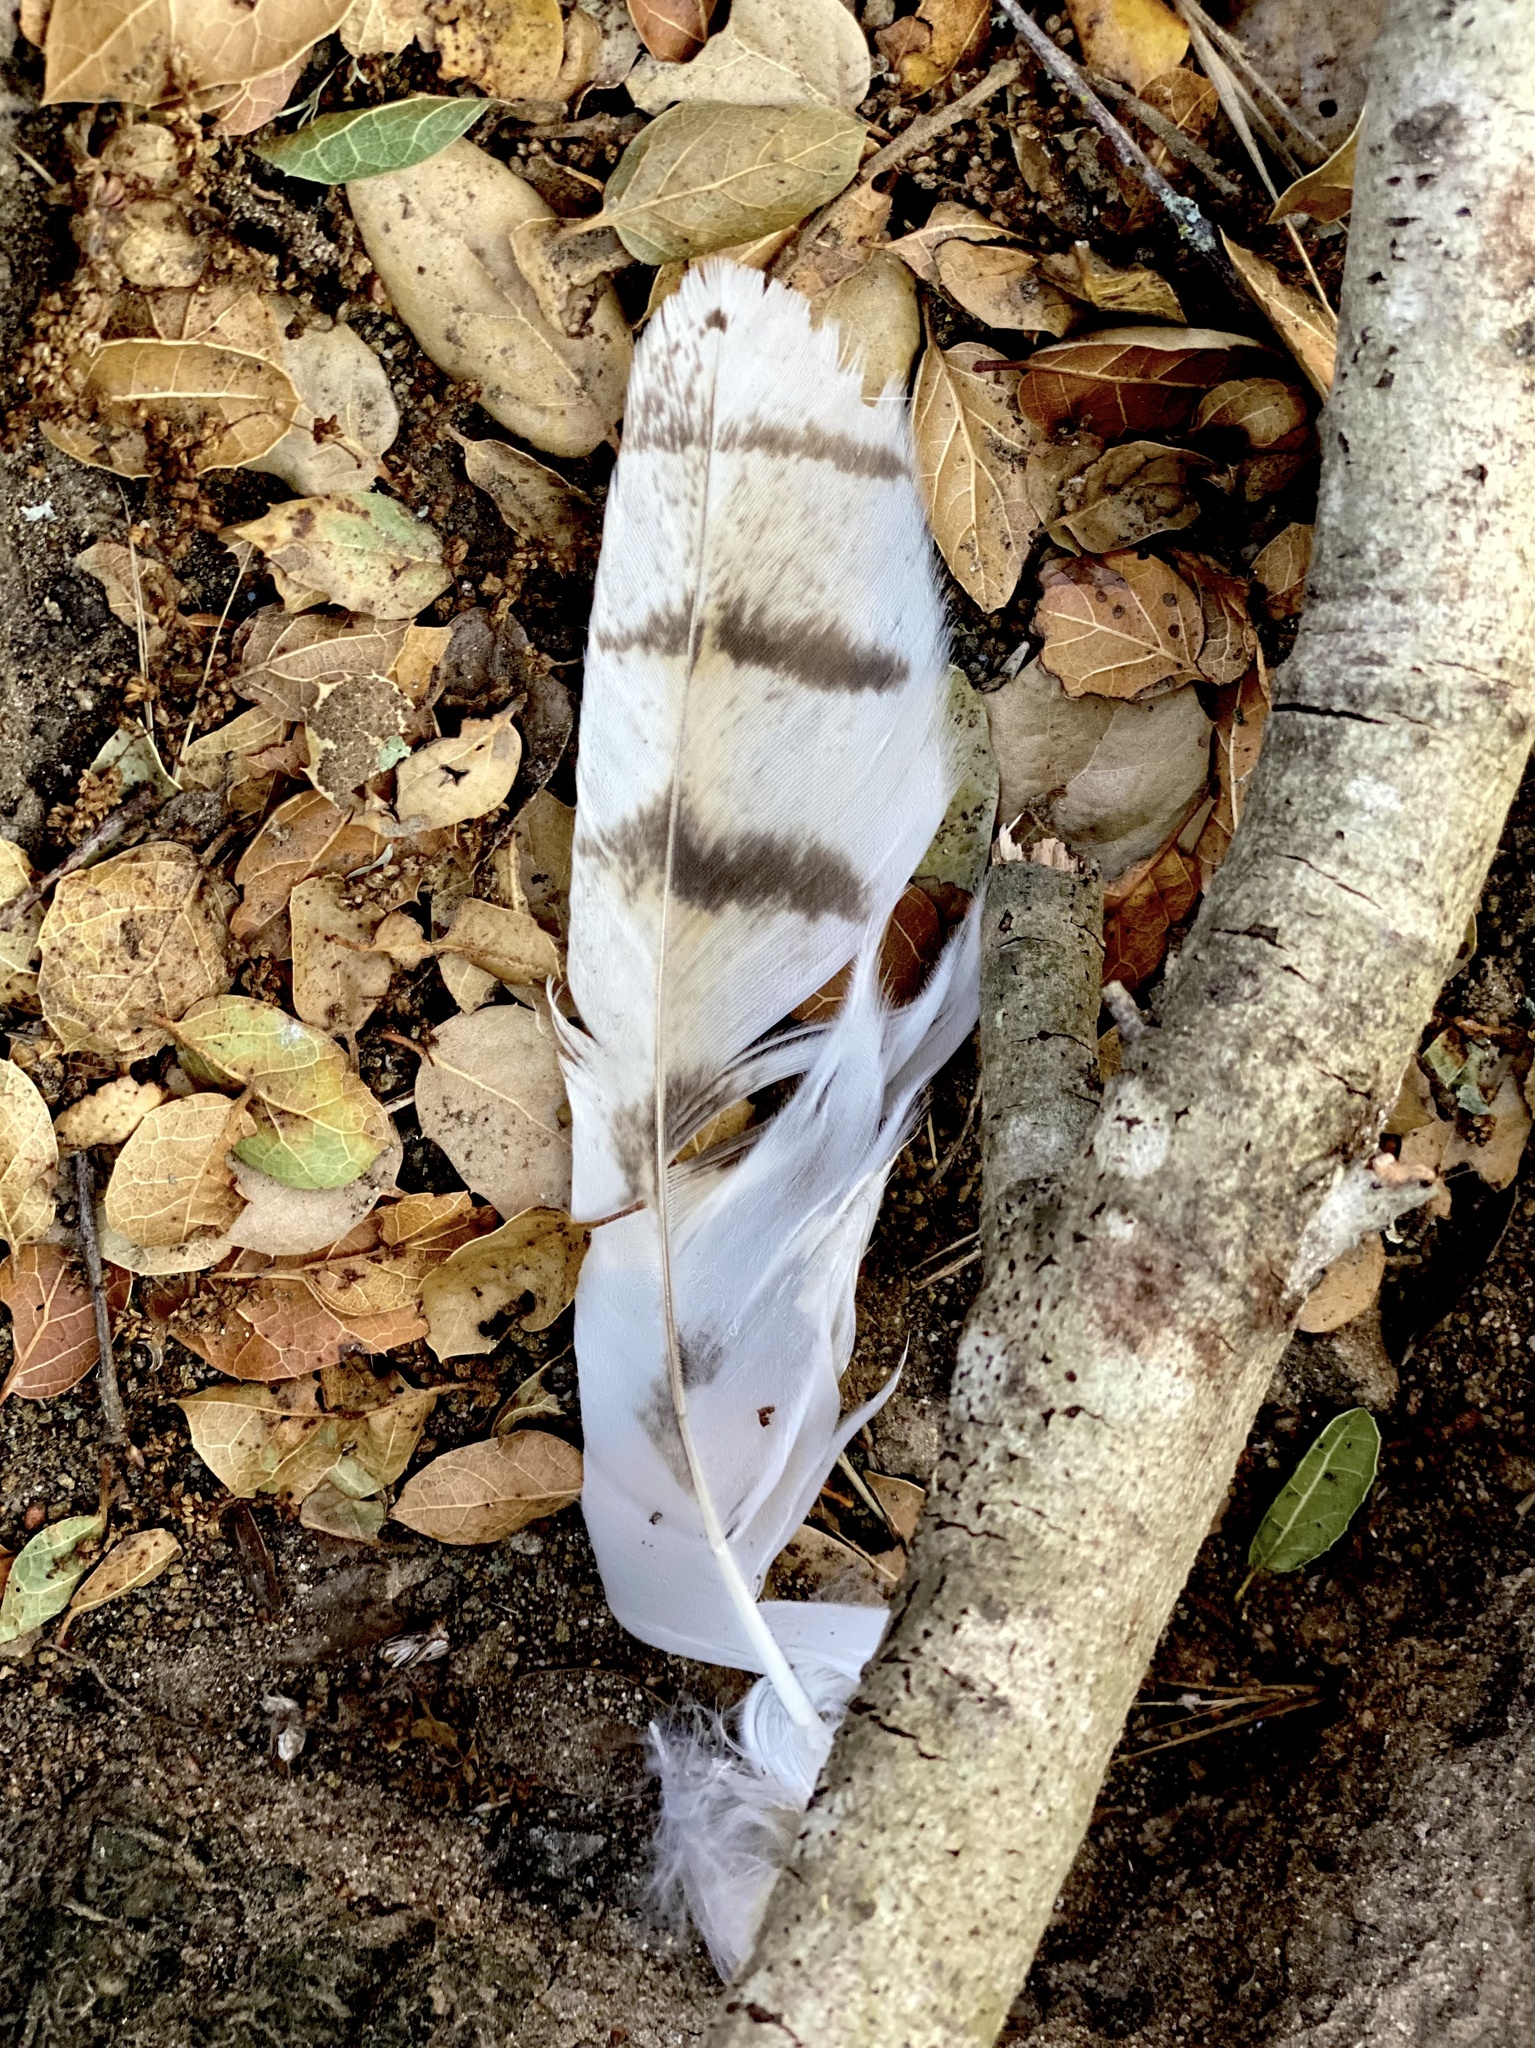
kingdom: Animalia
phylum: Chordata
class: Aves
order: Strigiformes
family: Tytonidae
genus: Tyto
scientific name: Tyto alba
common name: Barn owl
